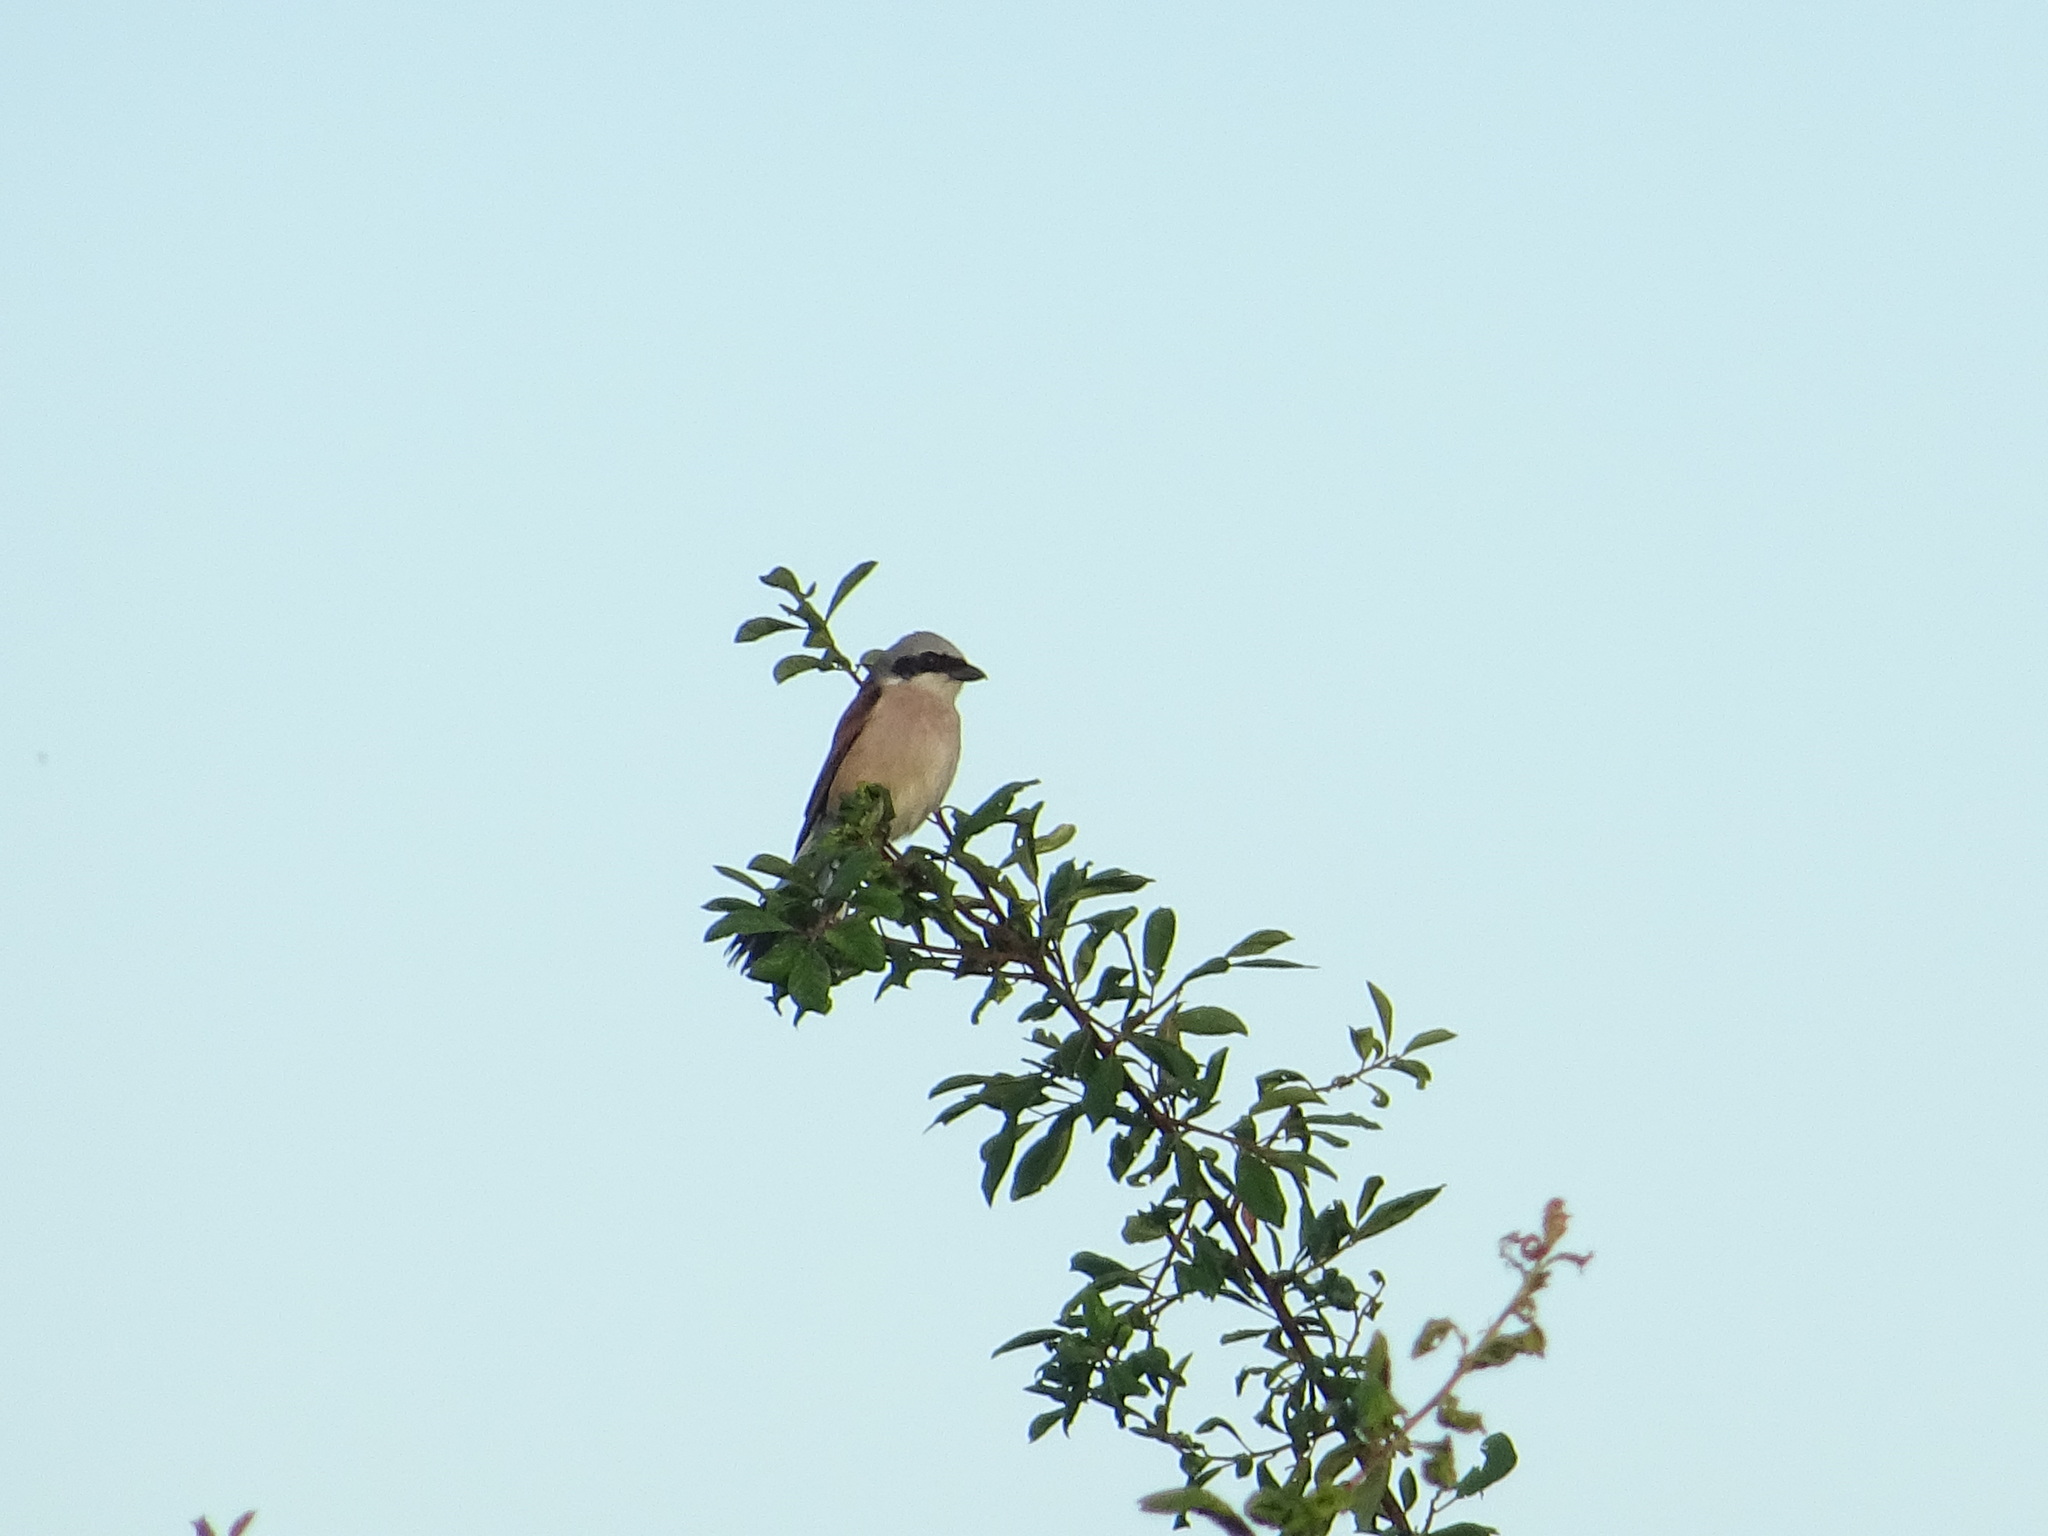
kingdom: Animalia
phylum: Chordata
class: Aves
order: Passeriformes
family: Laniidae
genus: Lanius
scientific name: Lanius collurio
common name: Red-backed shrike
